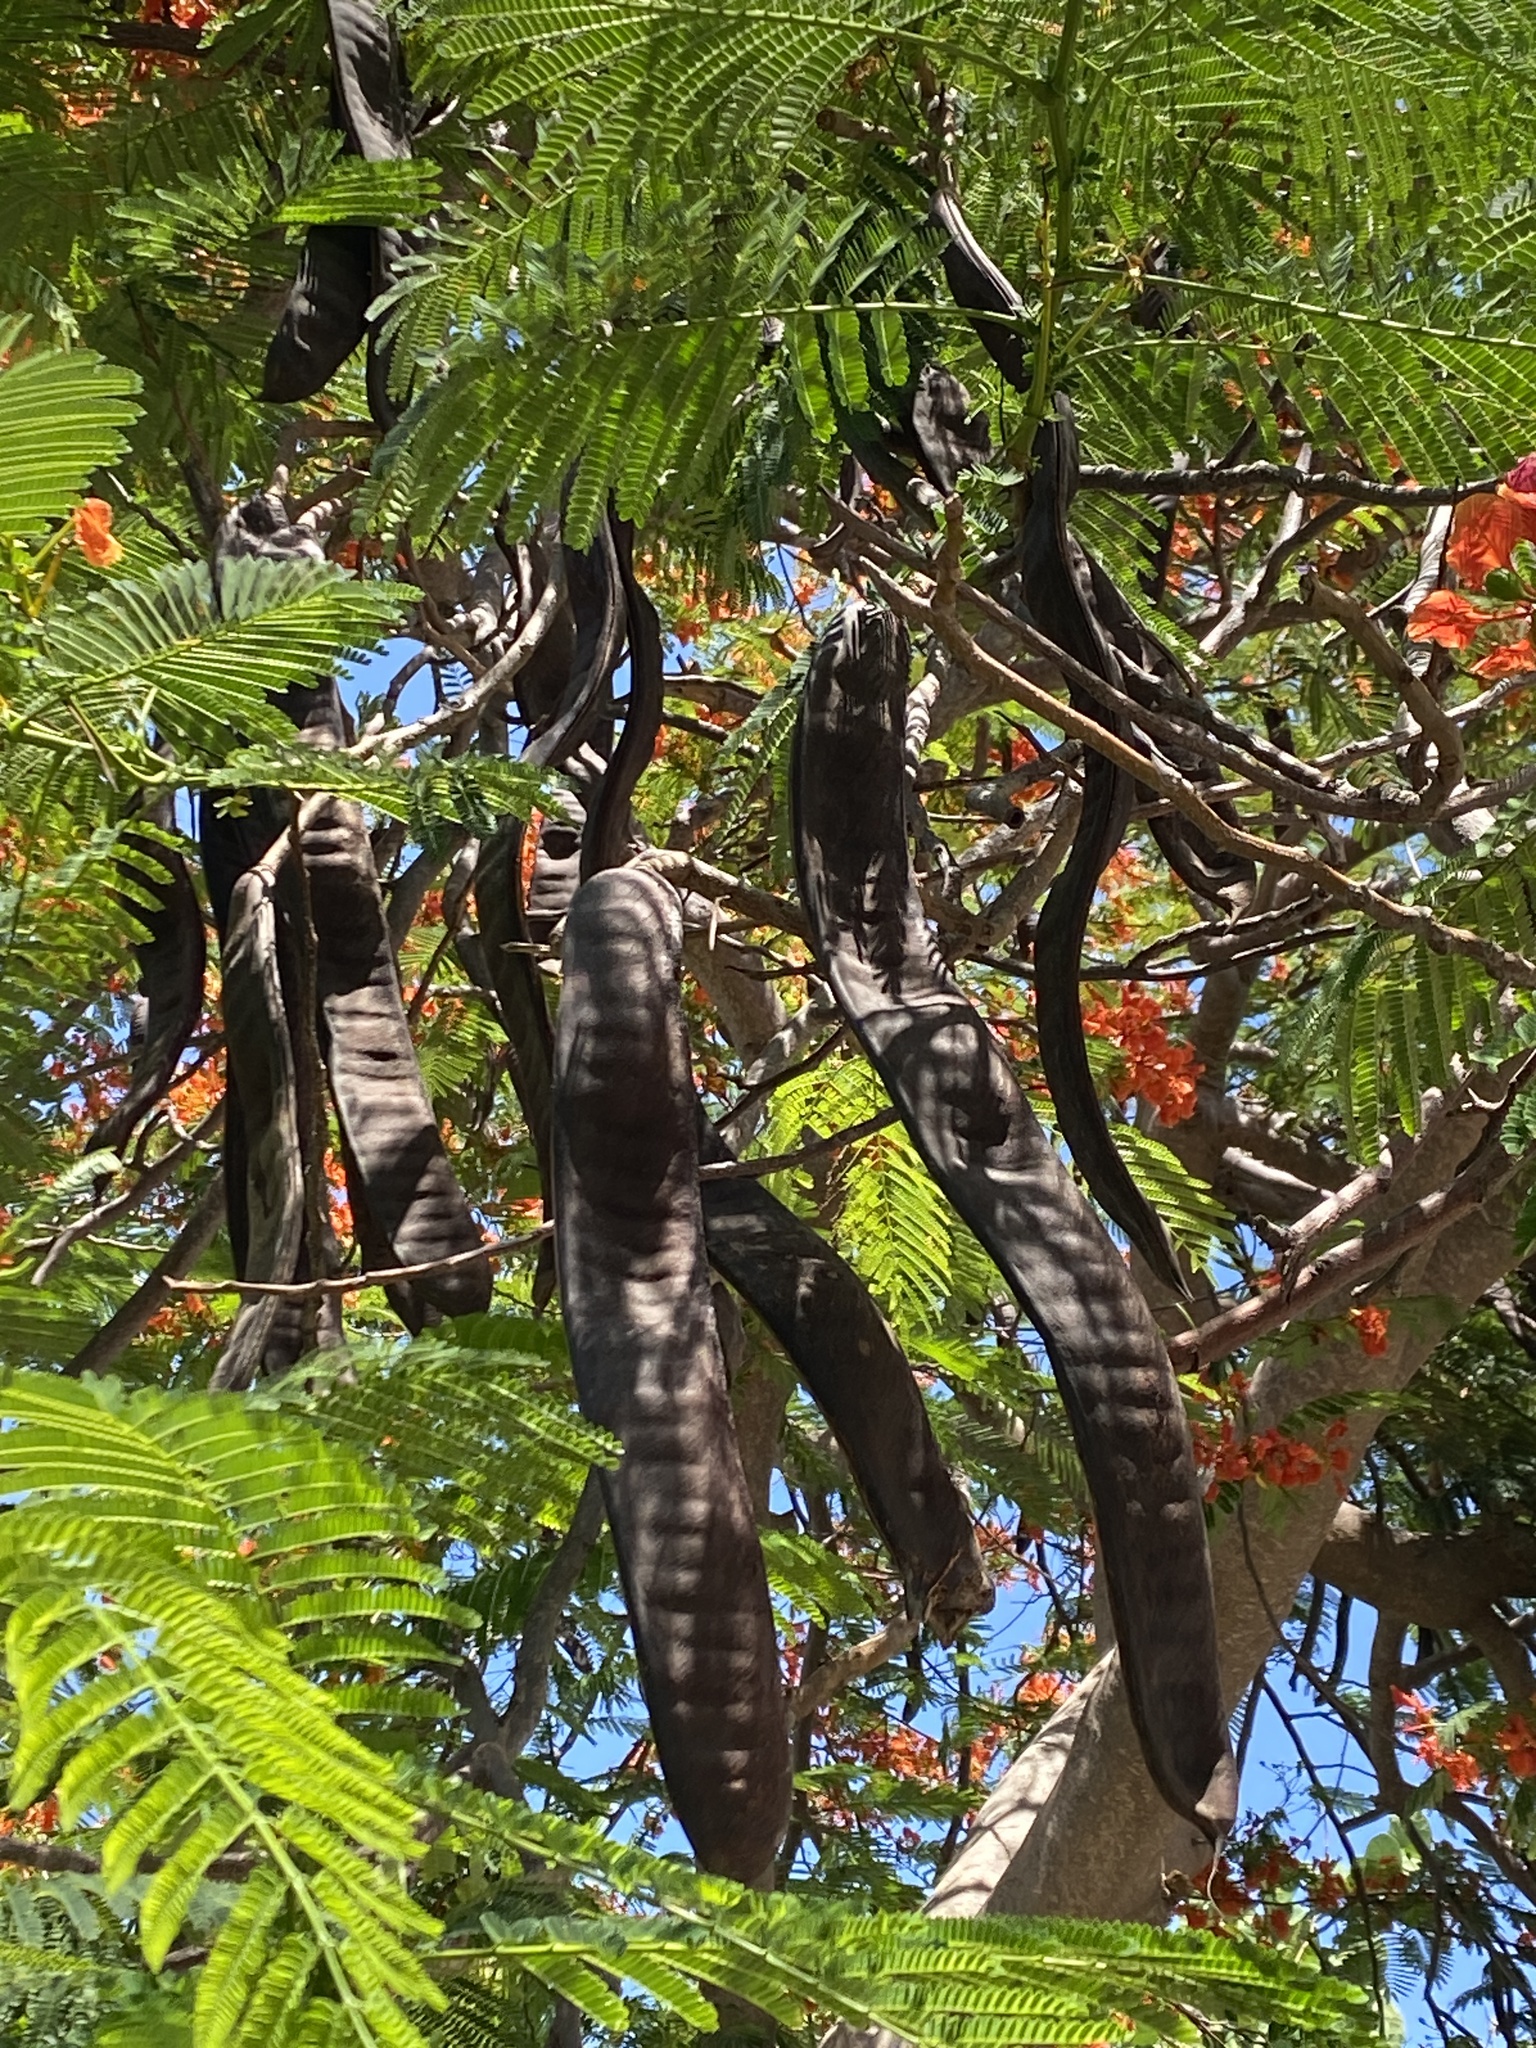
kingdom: Plantae
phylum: Tracheophyta
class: Magnoliopsida
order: Fabales
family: Fabaceae
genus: Delonix
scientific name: Delonix regia
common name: Royal poinciana
